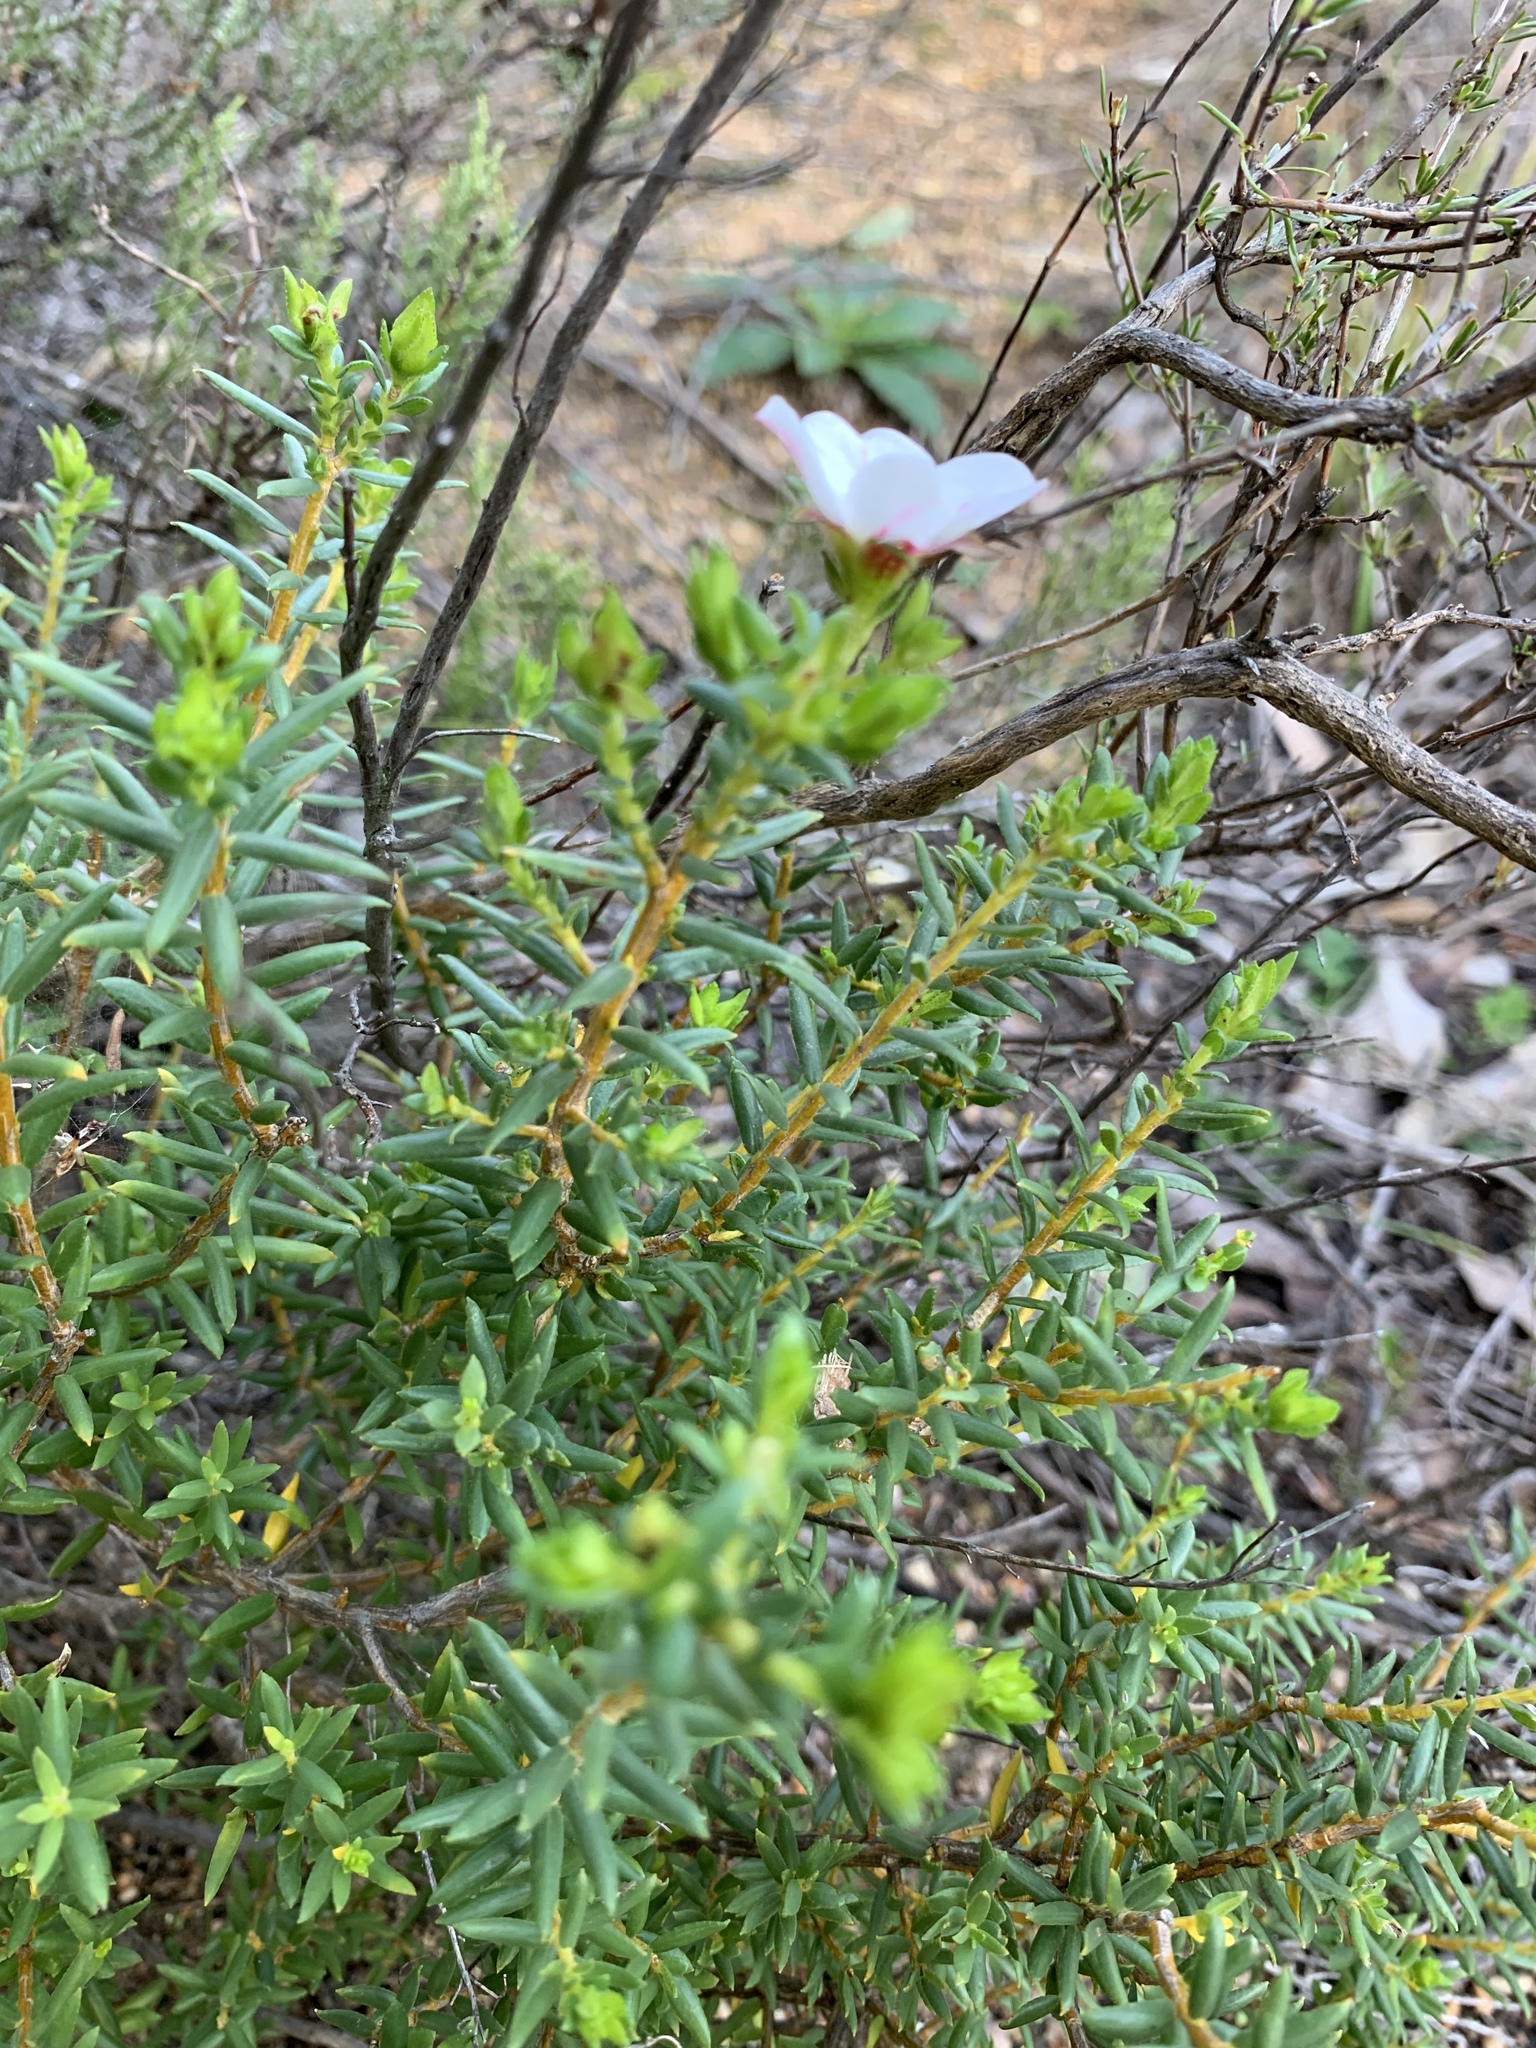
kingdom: Plantae
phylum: Tracheophyta
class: Magnoliopsida
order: Sapindales
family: Rutaceae
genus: Adenandra
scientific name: Adenandra uniflora
